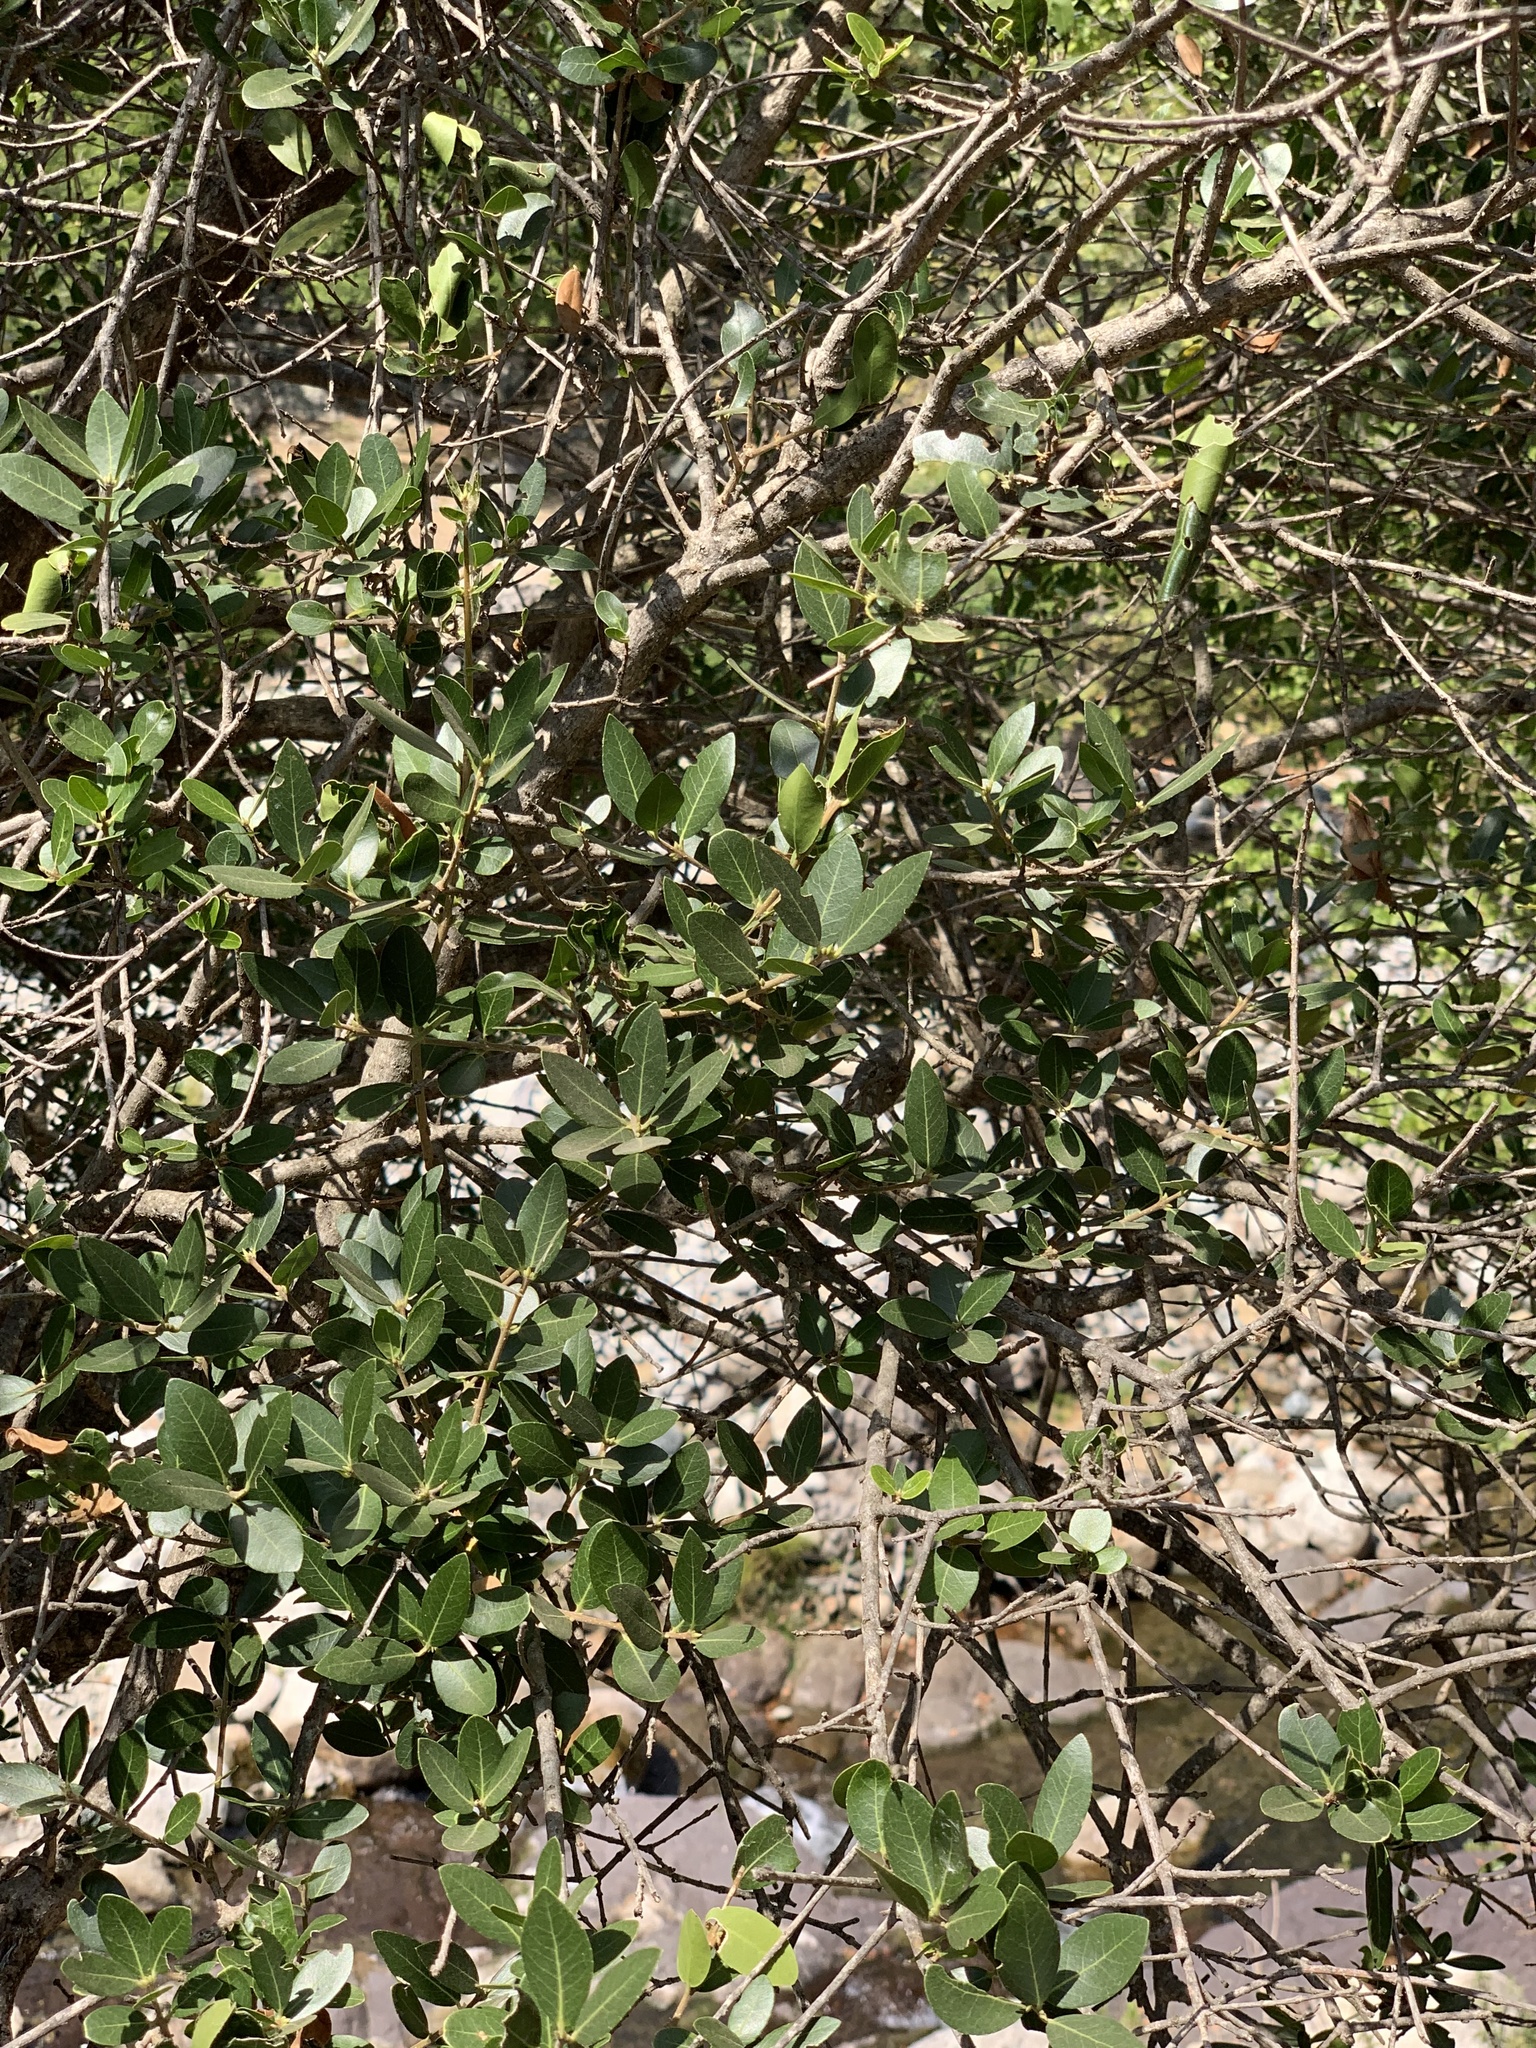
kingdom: Plantae
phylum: Tracheophyta
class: Magnoliopsida
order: Lamiales
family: Oleaceae
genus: Phillyrea
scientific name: Phillyrea latifolia
